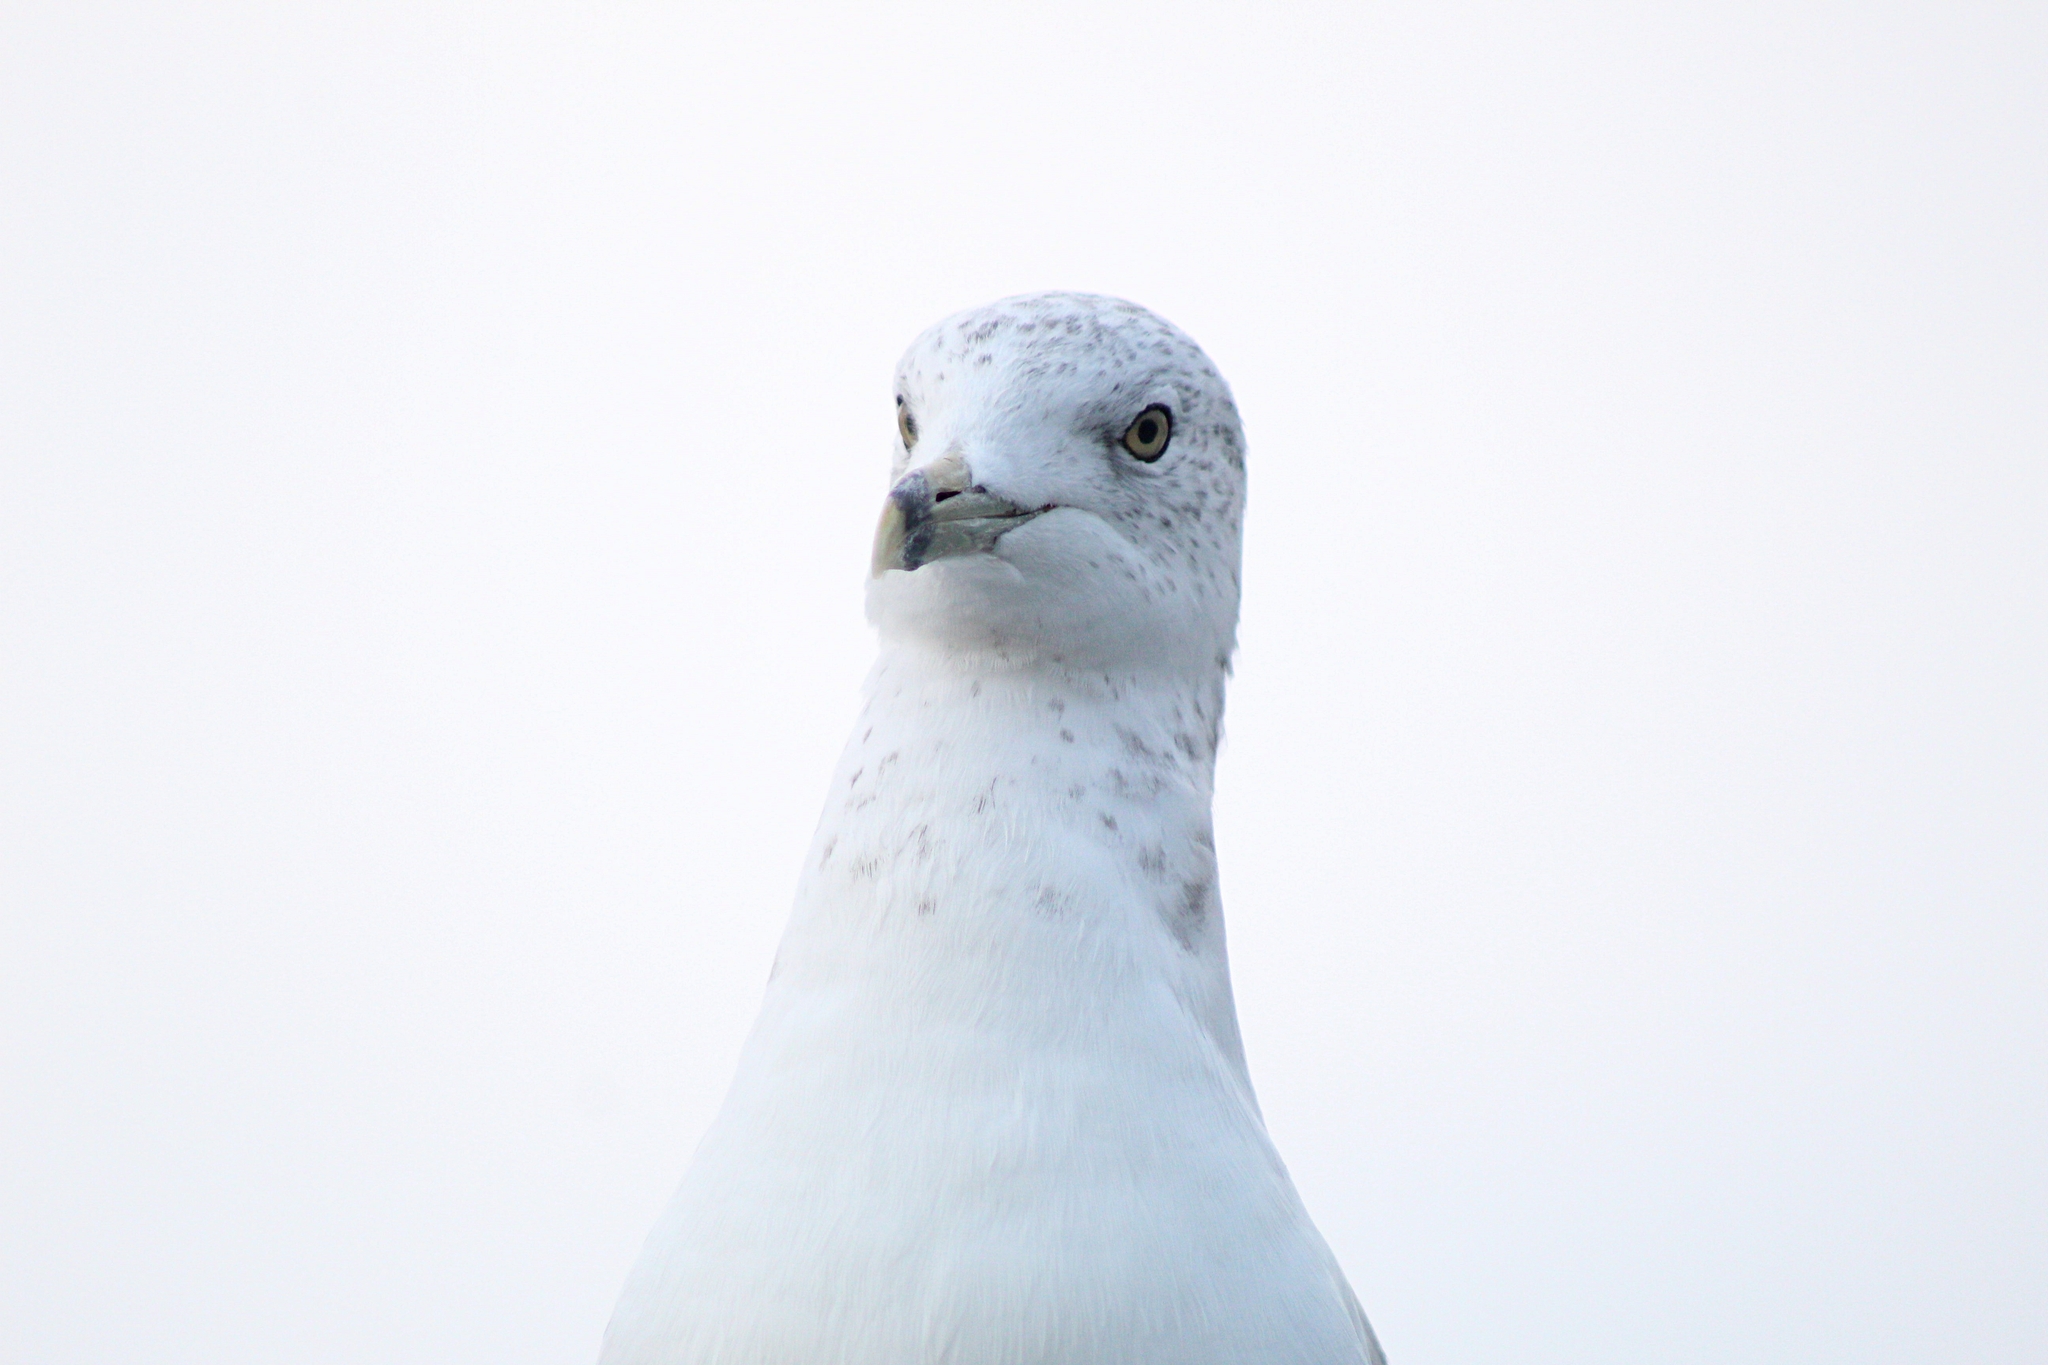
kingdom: Animalia
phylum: Chordata
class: Aves
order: Charadriiformes
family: Laridae
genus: Larus
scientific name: Larus delawarensis
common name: Ring-billed gull
